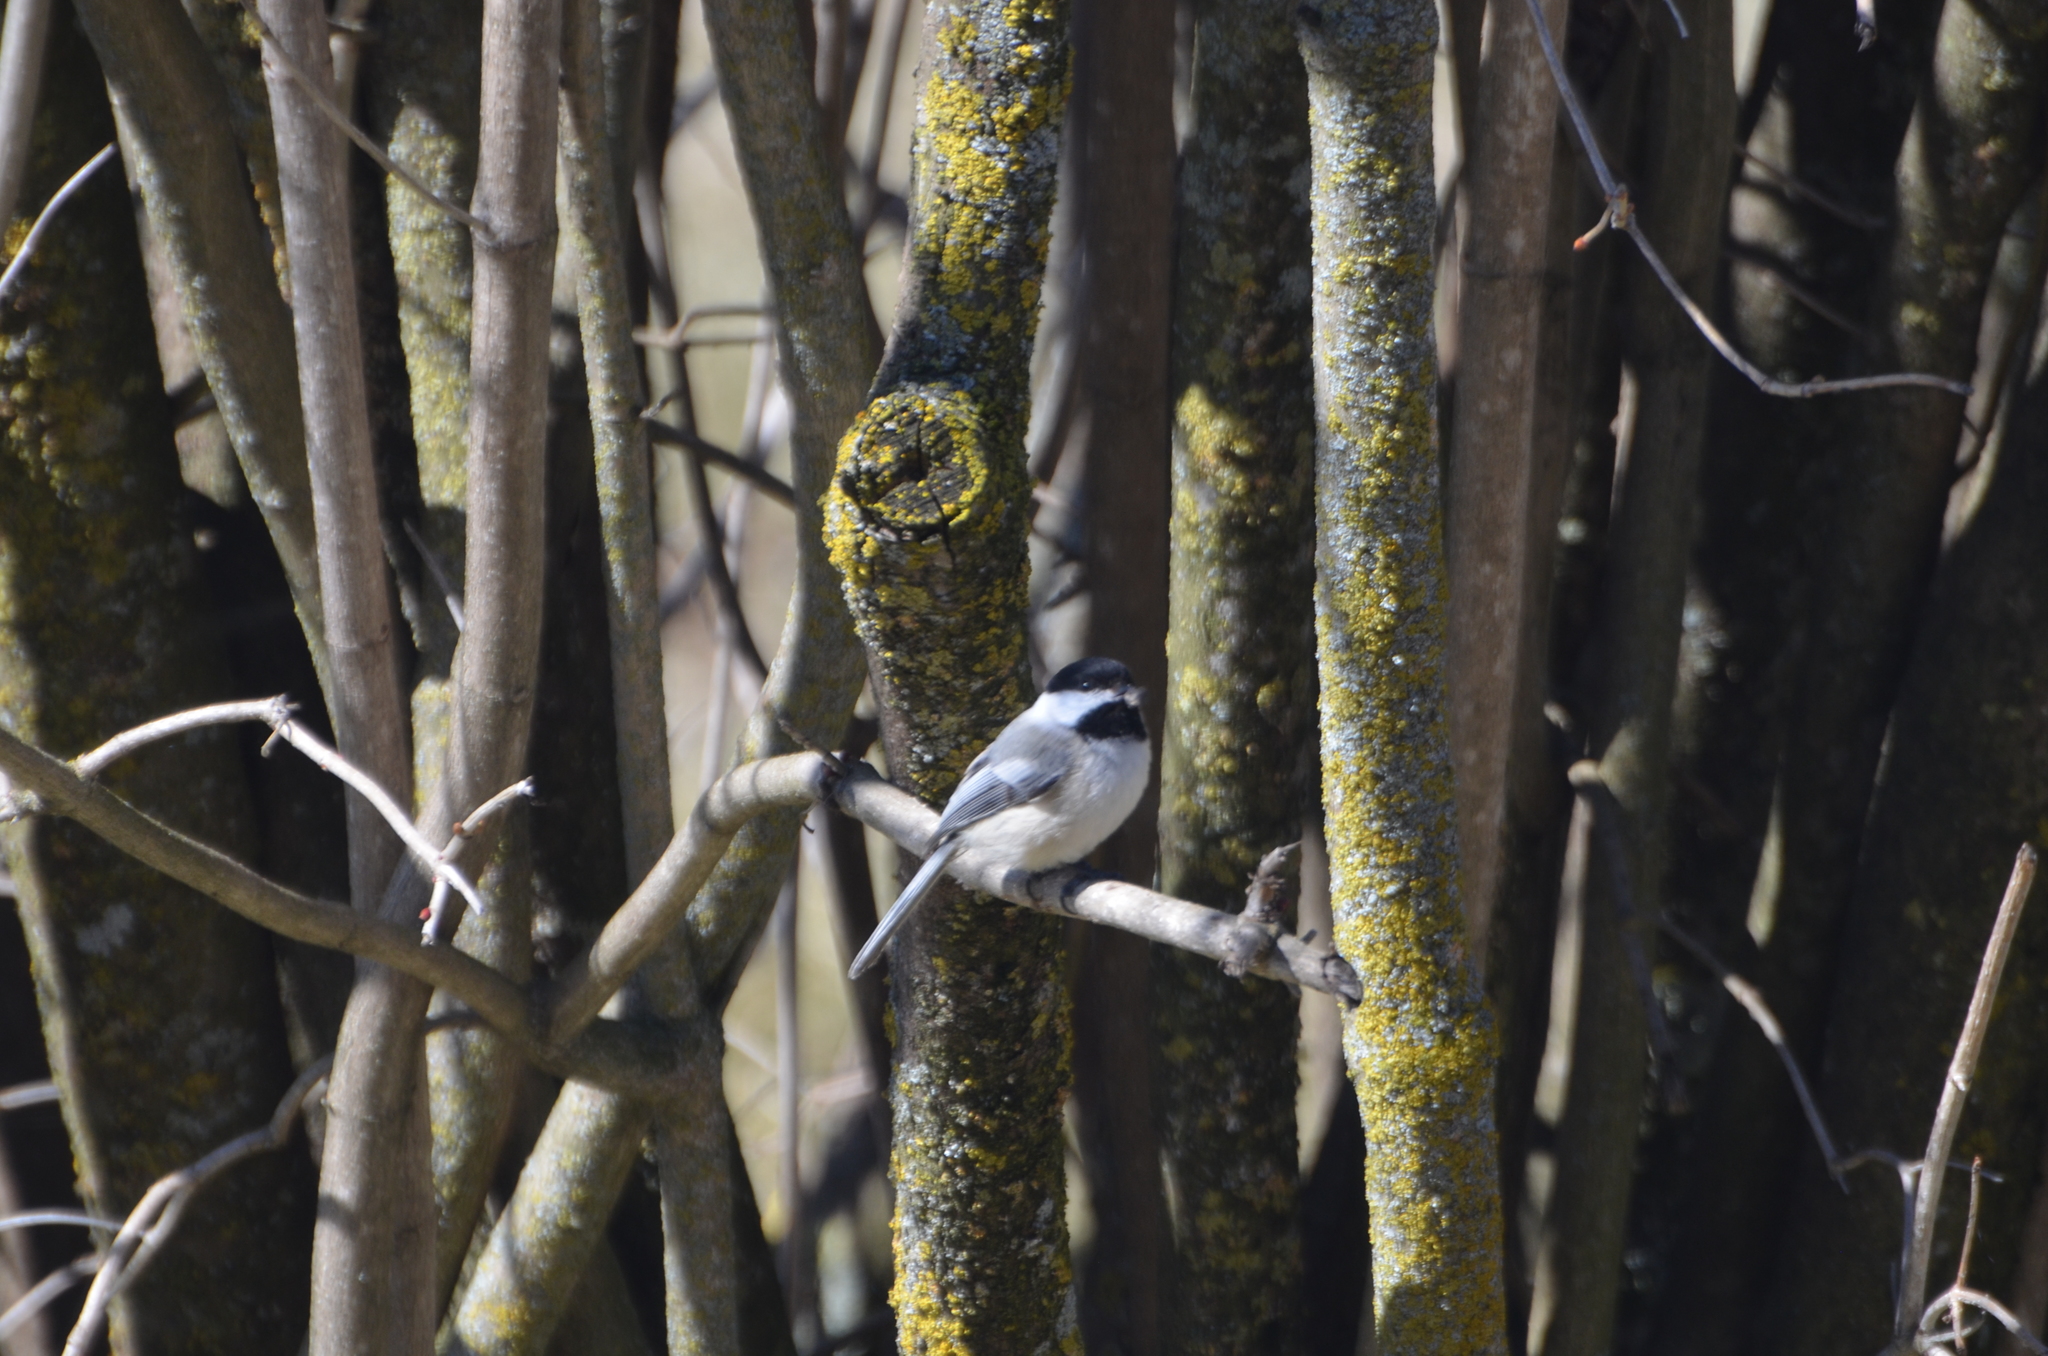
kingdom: Animalia
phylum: Chordata
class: Aves
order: Passeriformes
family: Paridae
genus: Poecile
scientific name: Poecile atricapillus
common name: Black-capped chickadee
